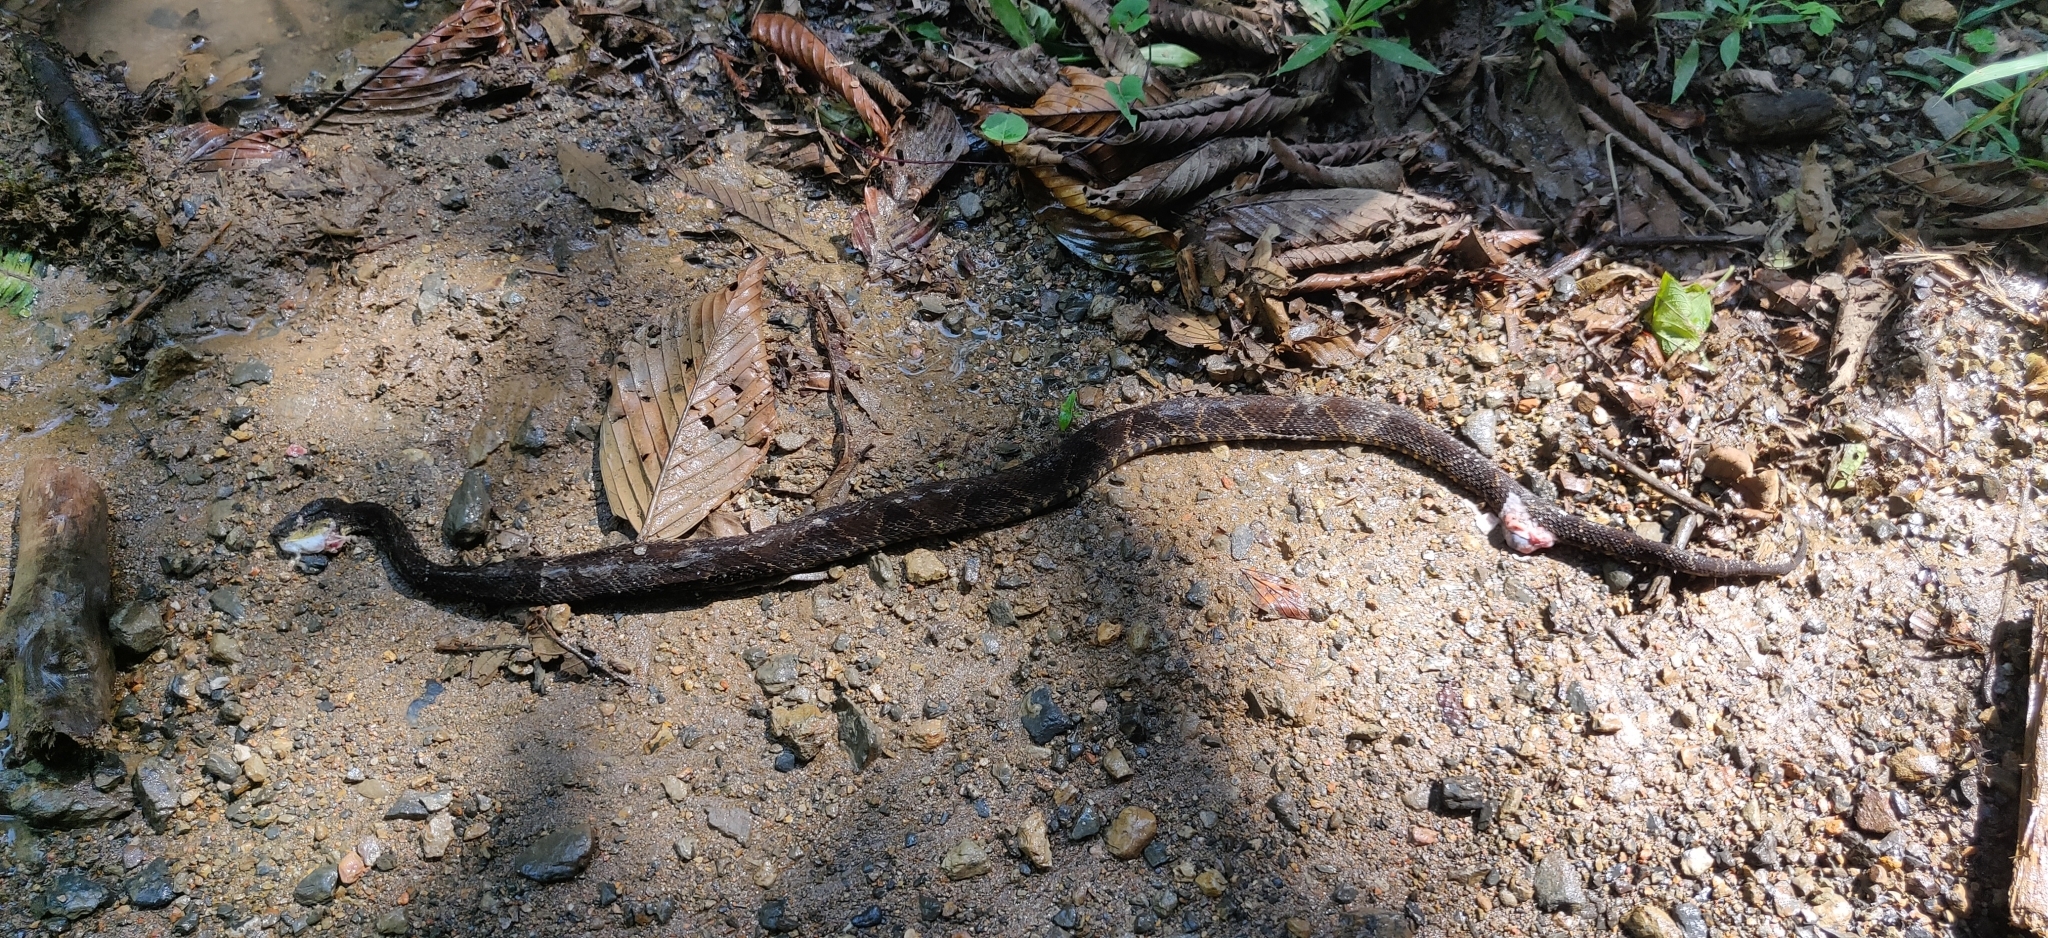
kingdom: Animalia
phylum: Chordata
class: Squamata
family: Viperidae
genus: Bothrops
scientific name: Bothrops asper
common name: Terciopelo
